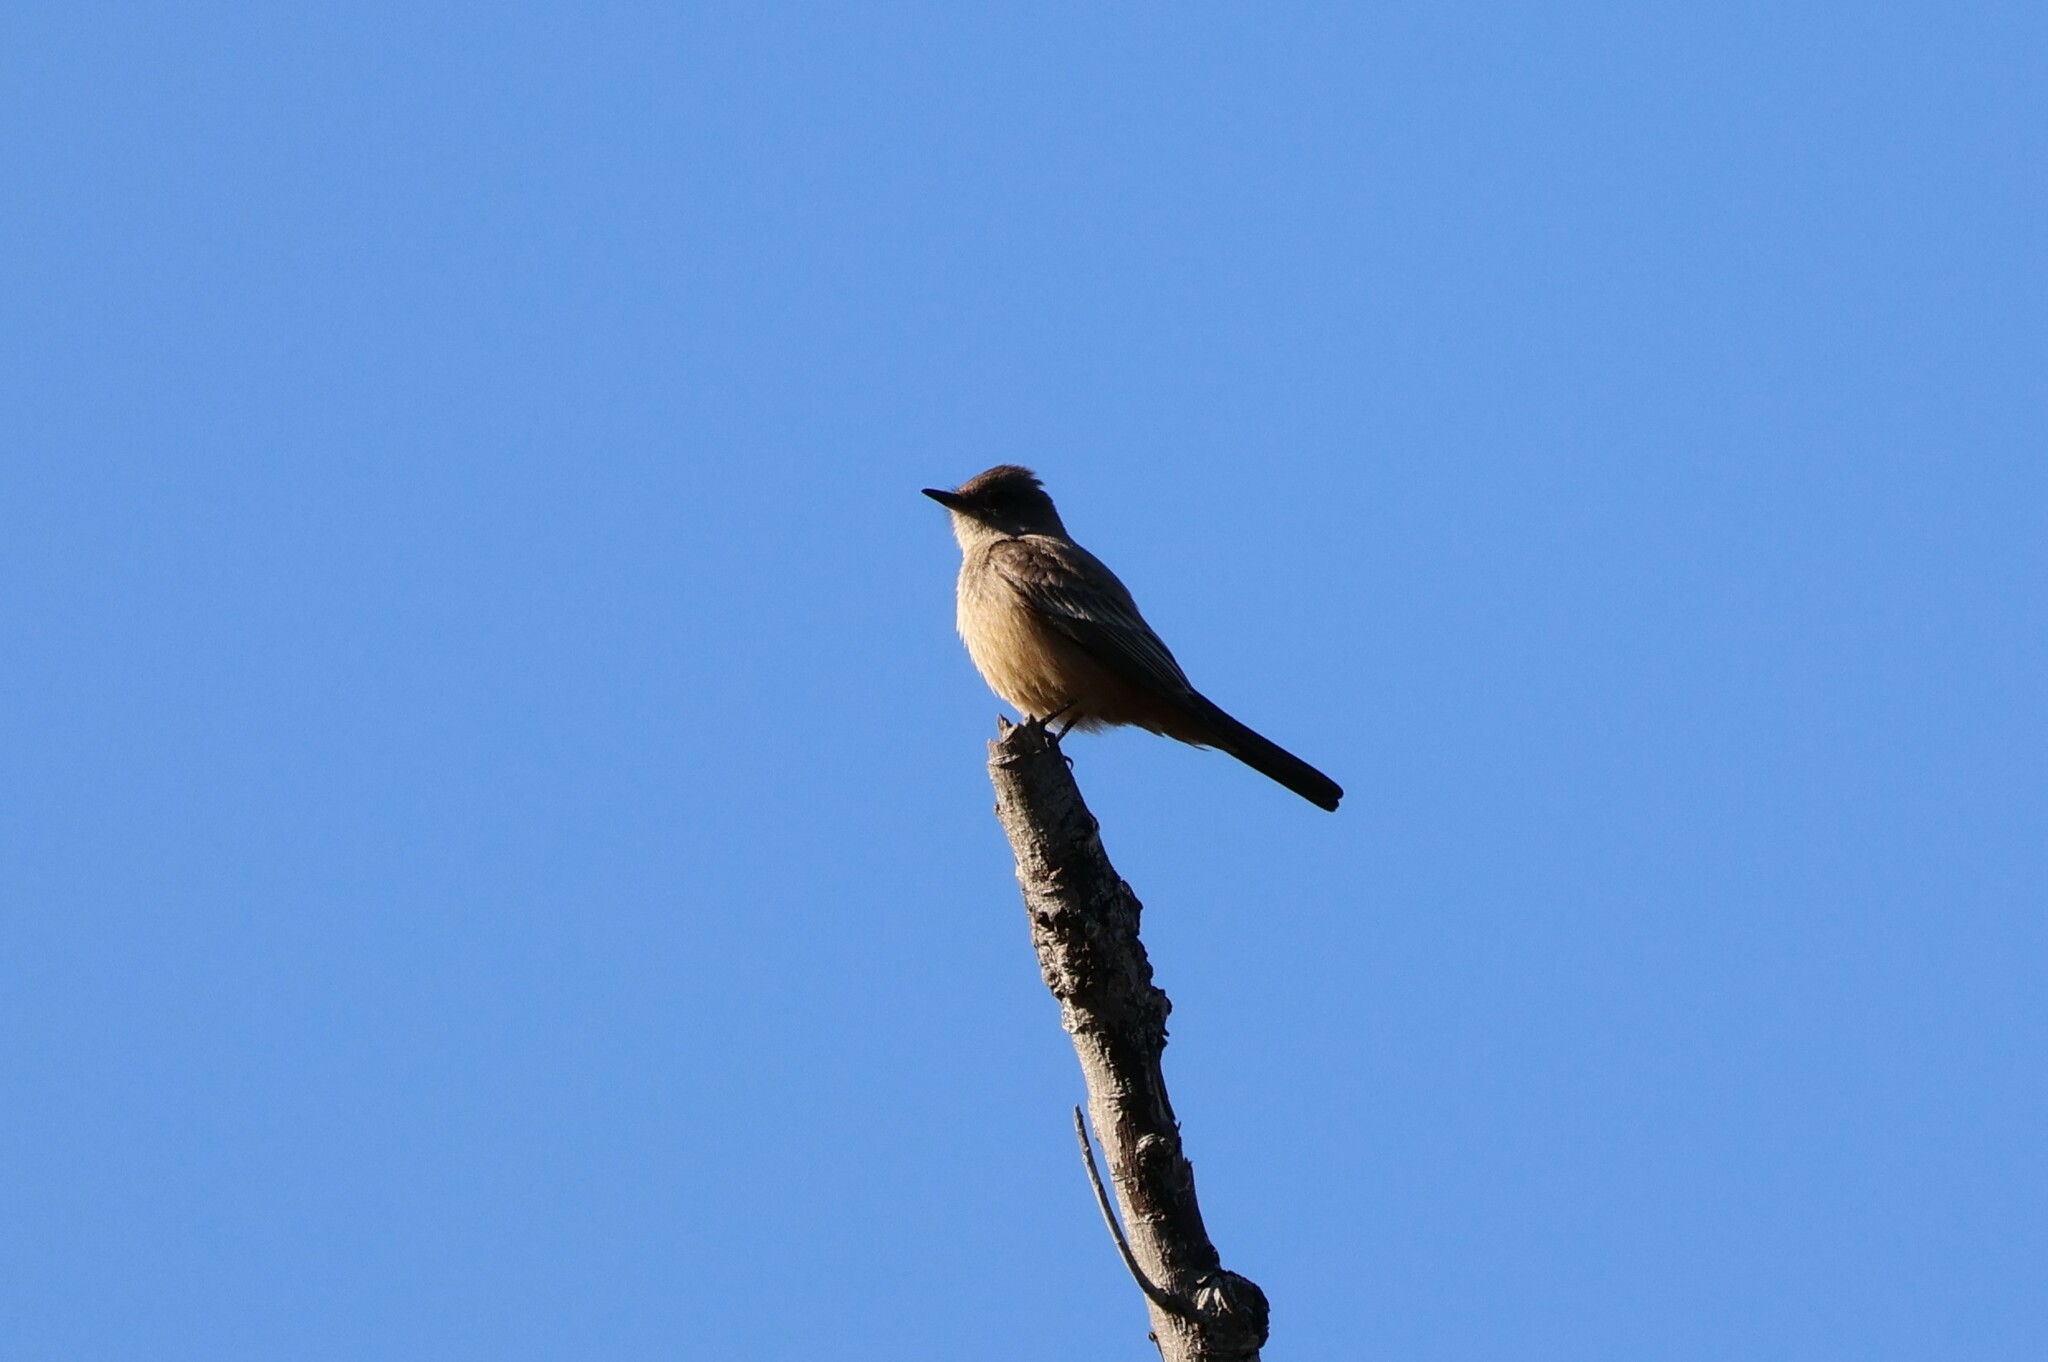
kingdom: Animalia
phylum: Chordata
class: Aves
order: Passeriformes
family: Tyrannidae
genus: Sayornis
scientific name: Sayornis saya
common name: Say's phoebe
